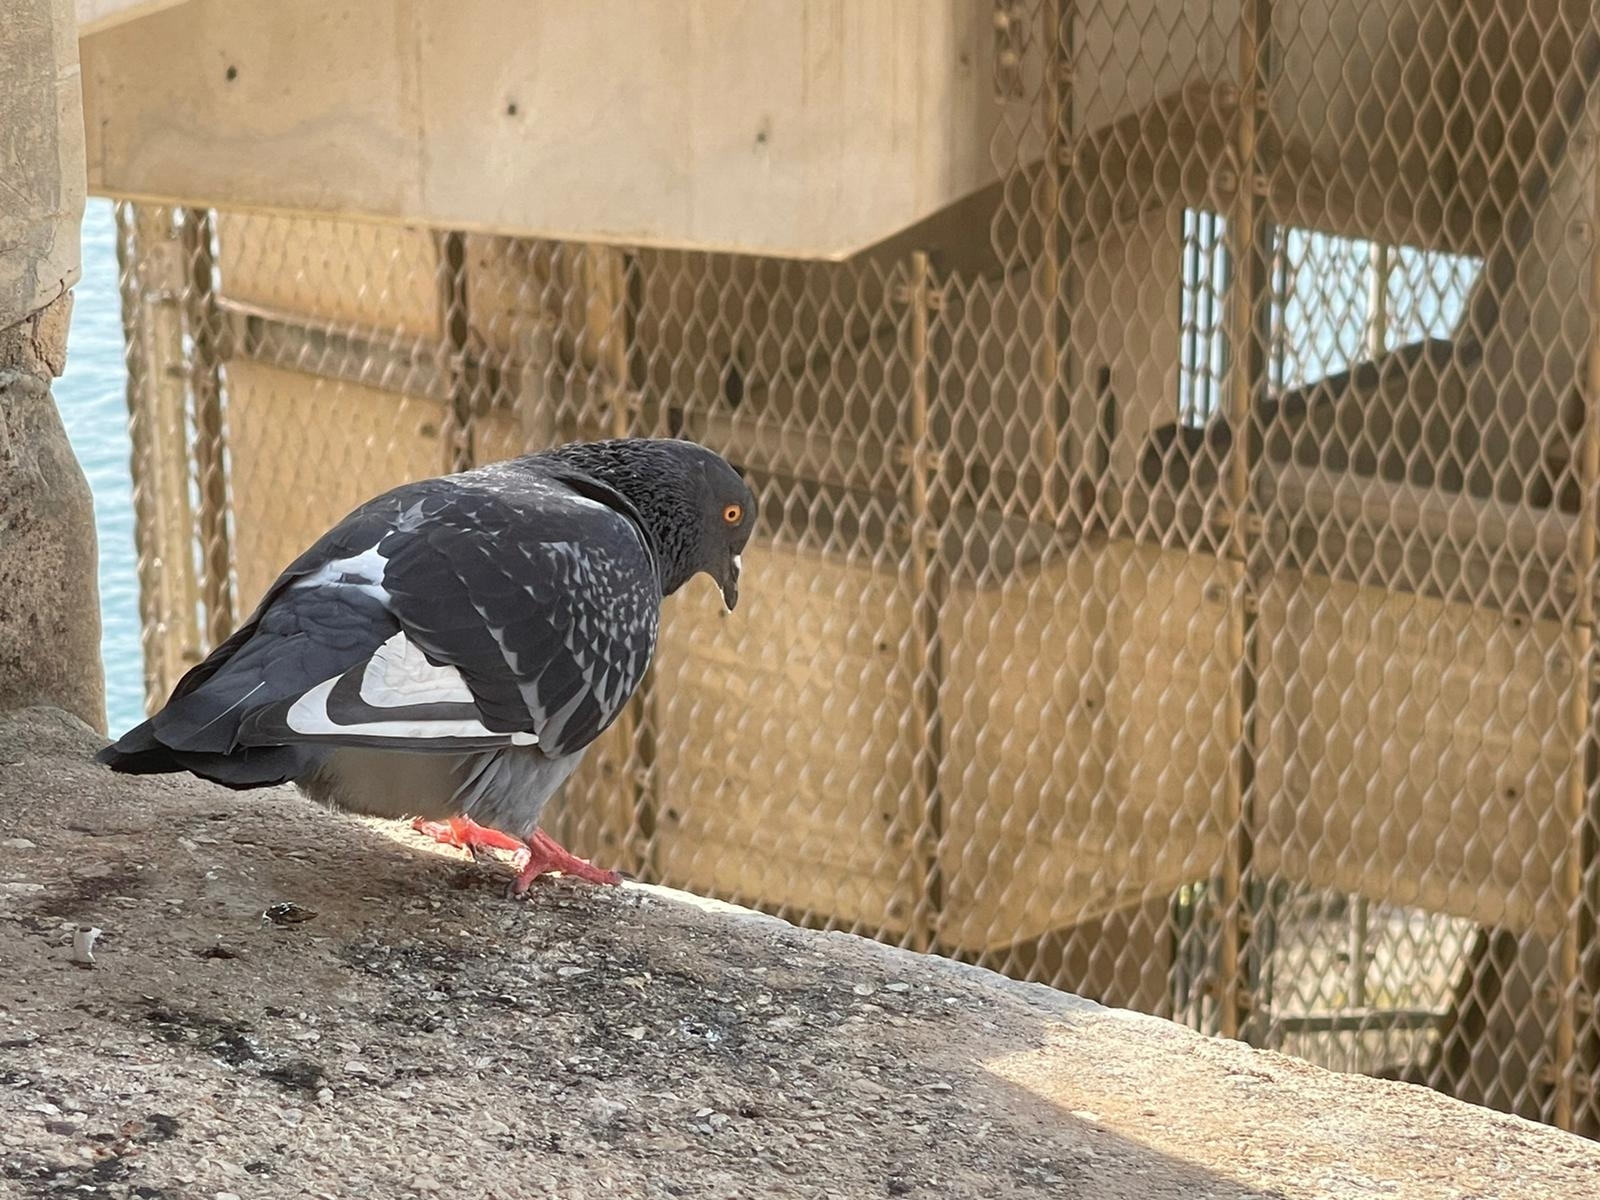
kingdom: Animalia
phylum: Chordata
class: Aves
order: Columbiformes
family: Columbidae
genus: Columba
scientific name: Columba livia
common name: Rock pigeon
